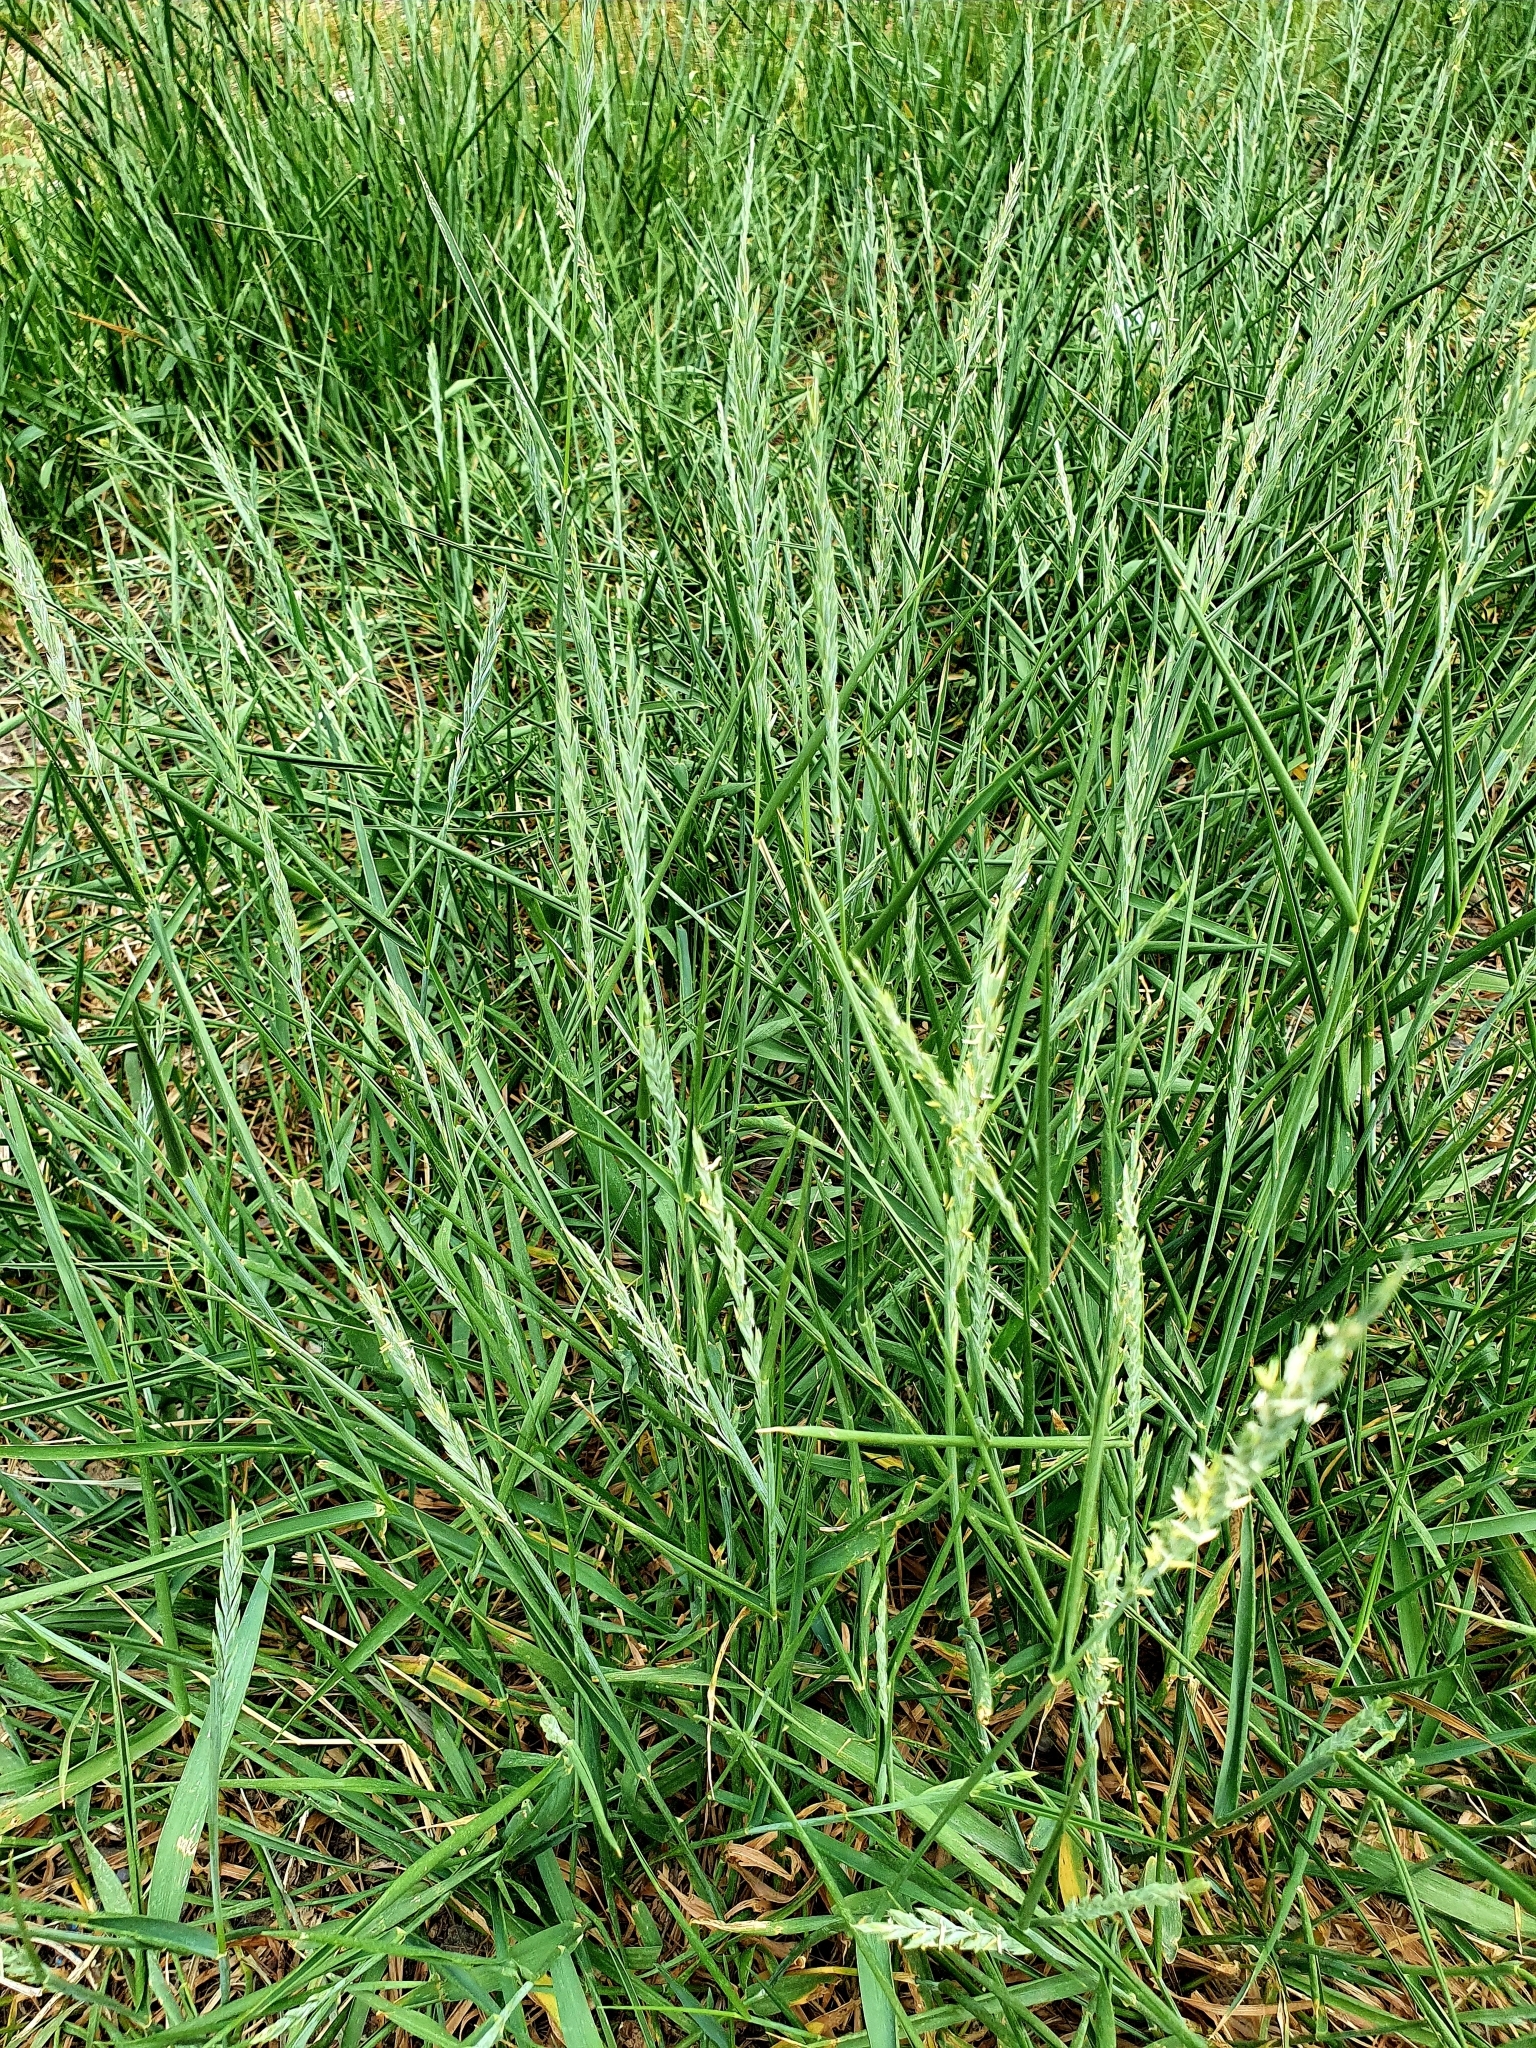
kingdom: Plantae
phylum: Tracheophyta
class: Liliopsida
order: Poales
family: Poaceae
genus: Elymus
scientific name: Elymus repens
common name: Quackgrass
